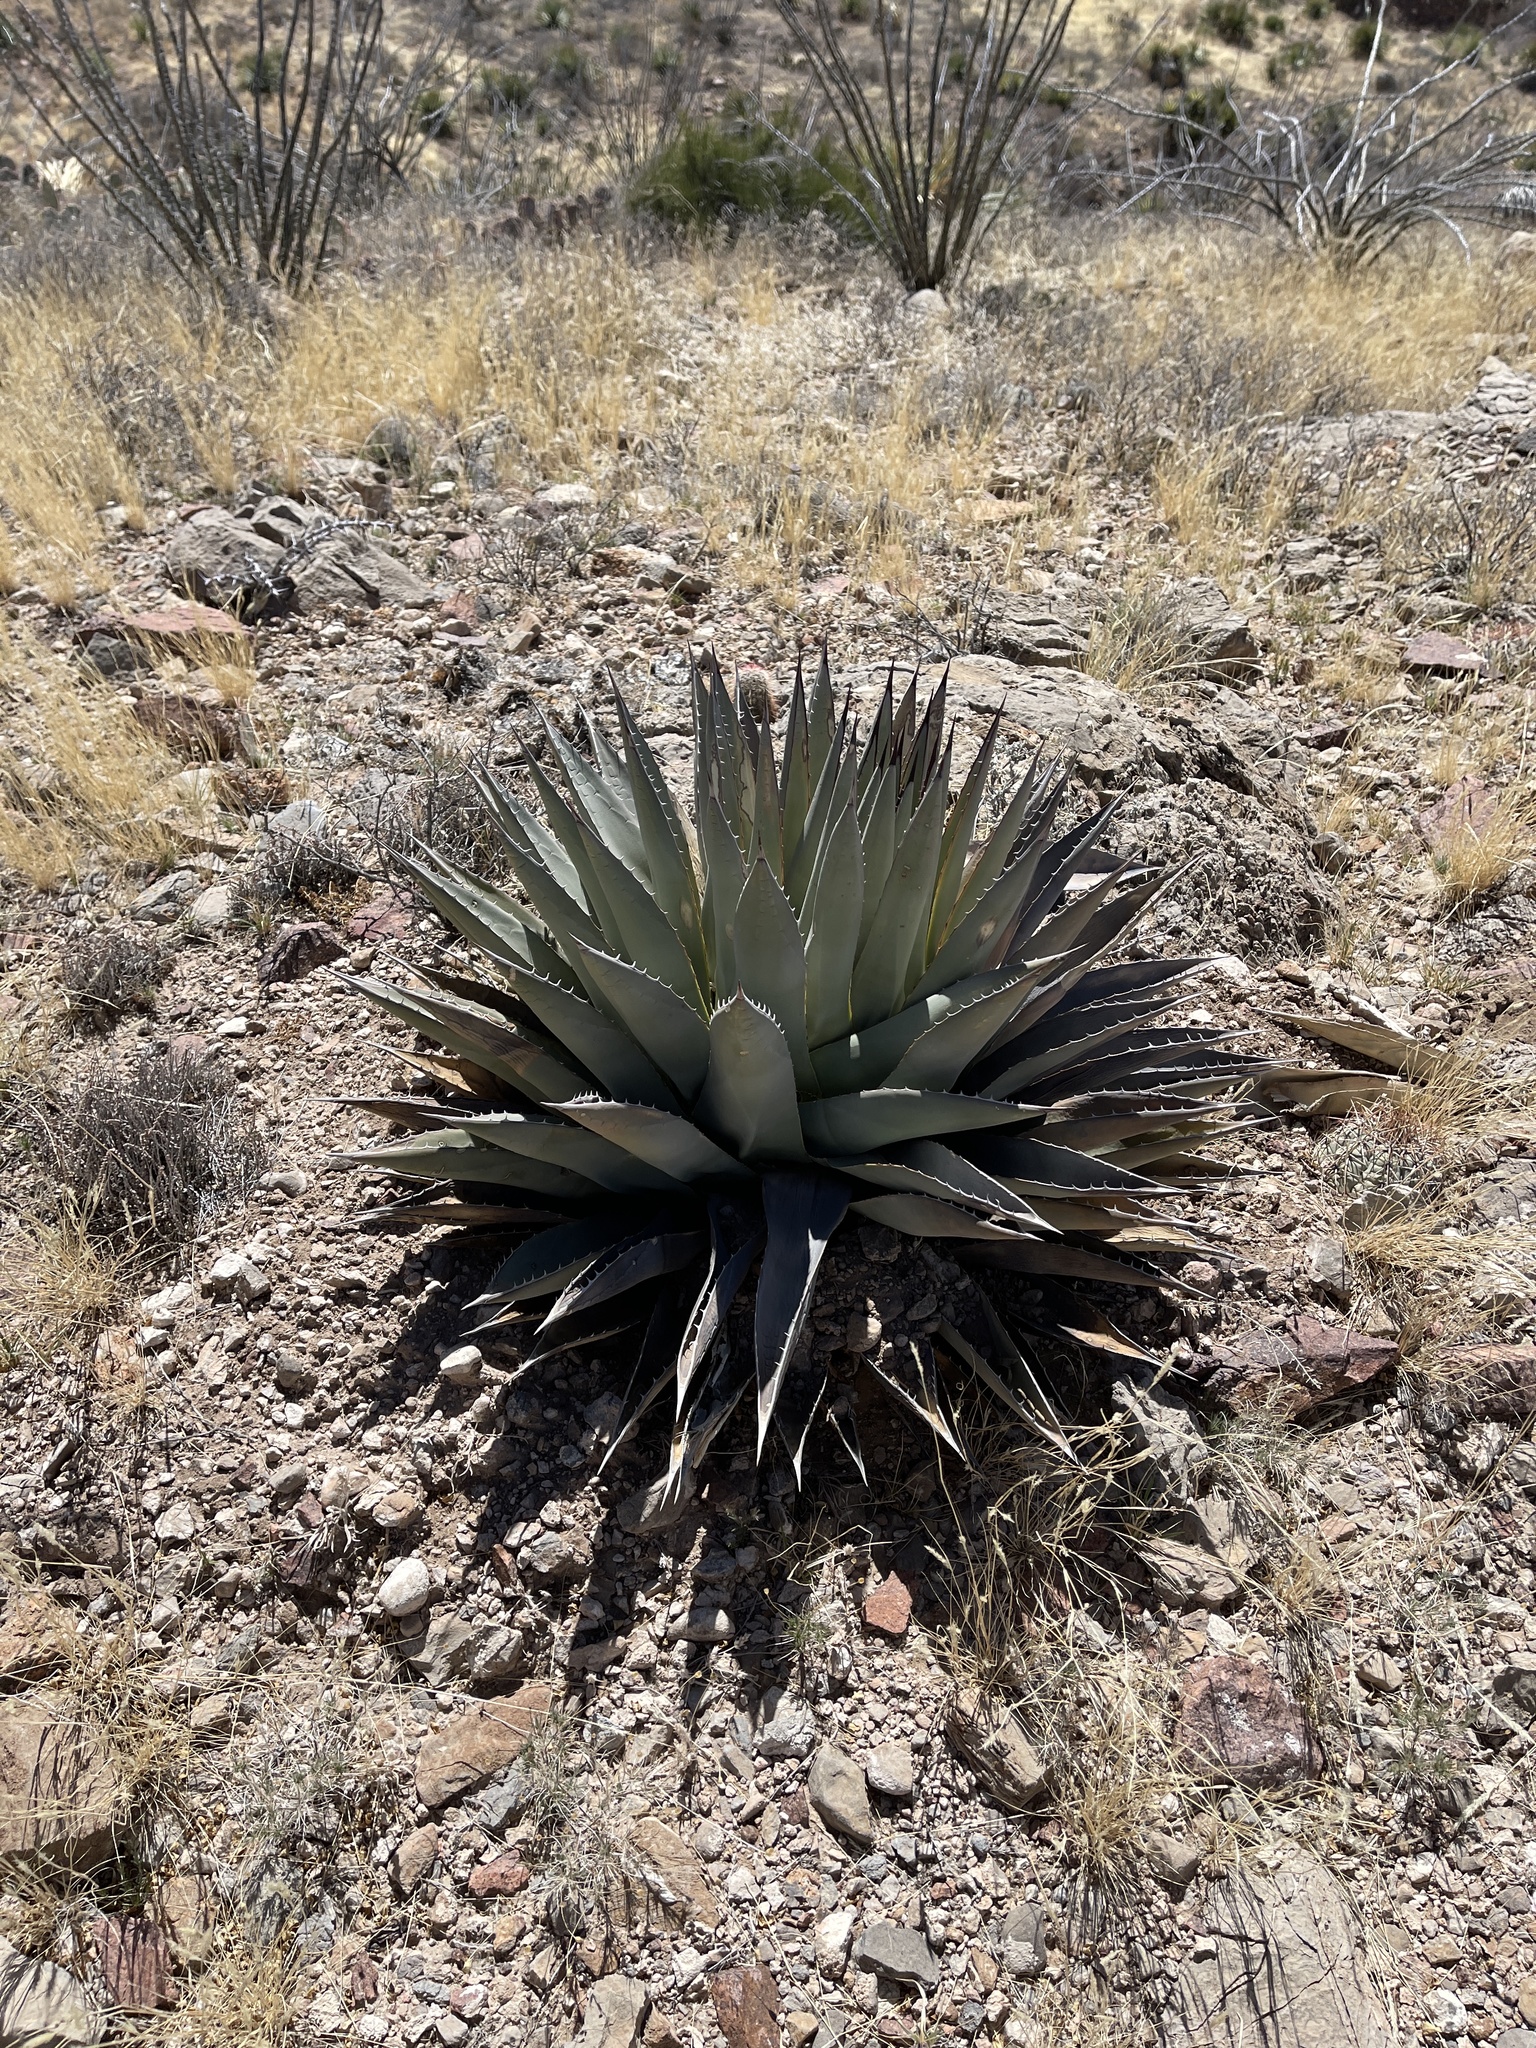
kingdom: Plantae
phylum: Tracheophyta
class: Liliopsida
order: Asparagales
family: Asparagaceae
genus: Agave
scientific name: Agave parryi
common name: Parry's agave
